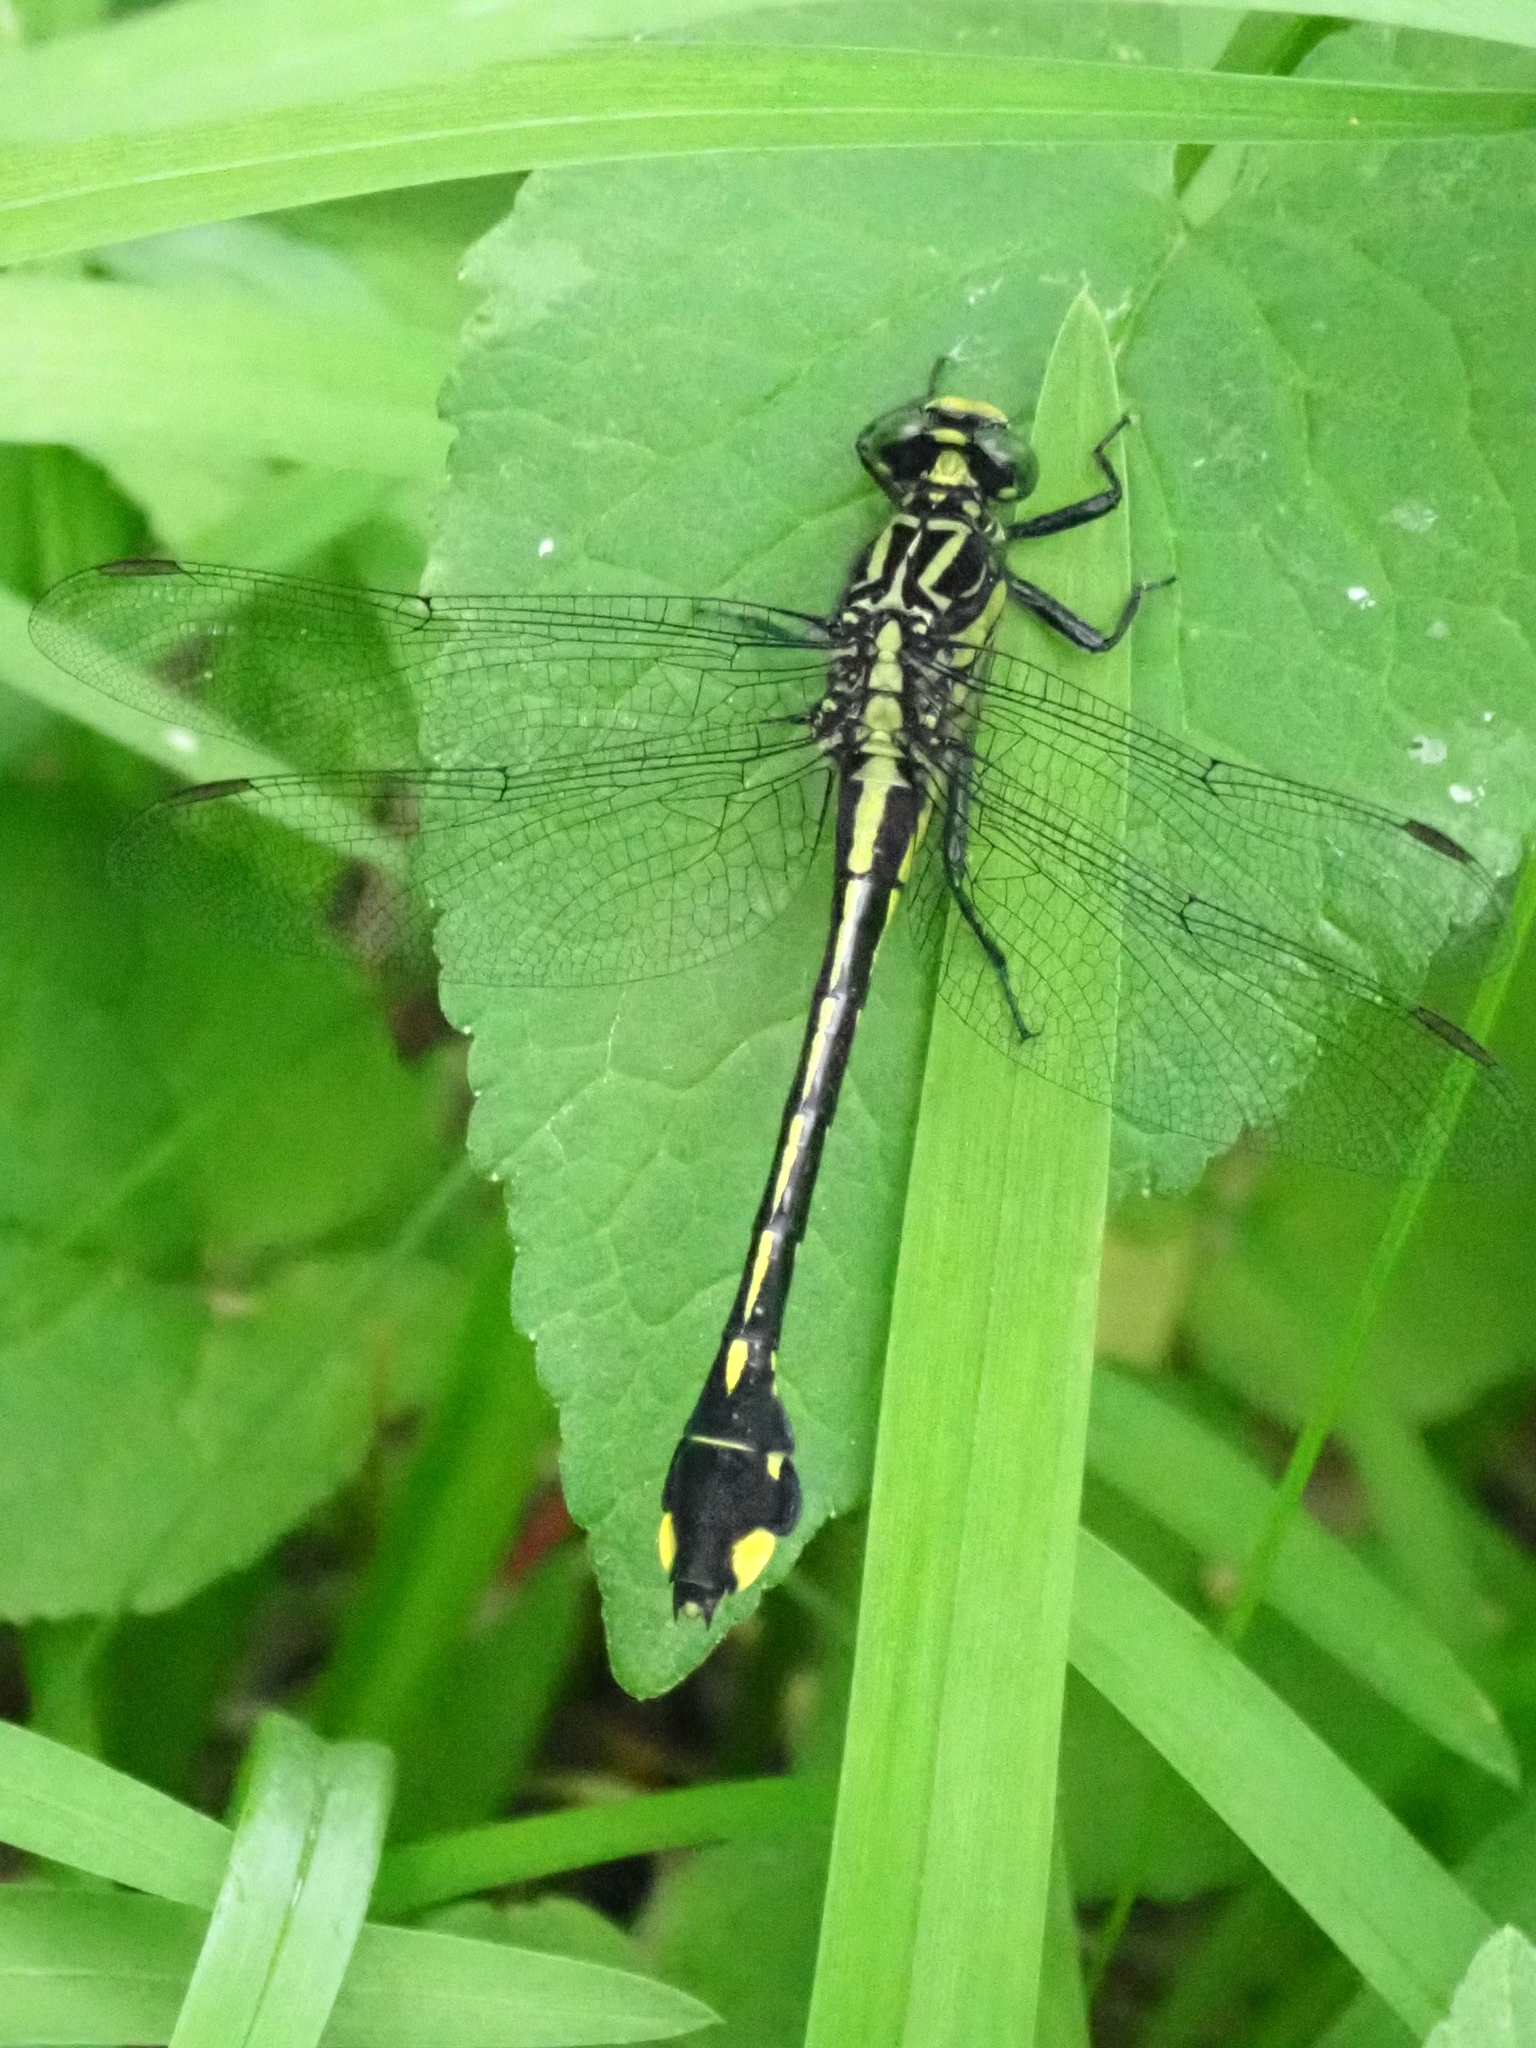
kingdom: Animalia
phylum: Arthropoda
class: Insecta
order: Odonata
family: Gomphidae
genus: Gomphurus
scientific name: Gomphurus vastus
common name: Cobra clubtail
